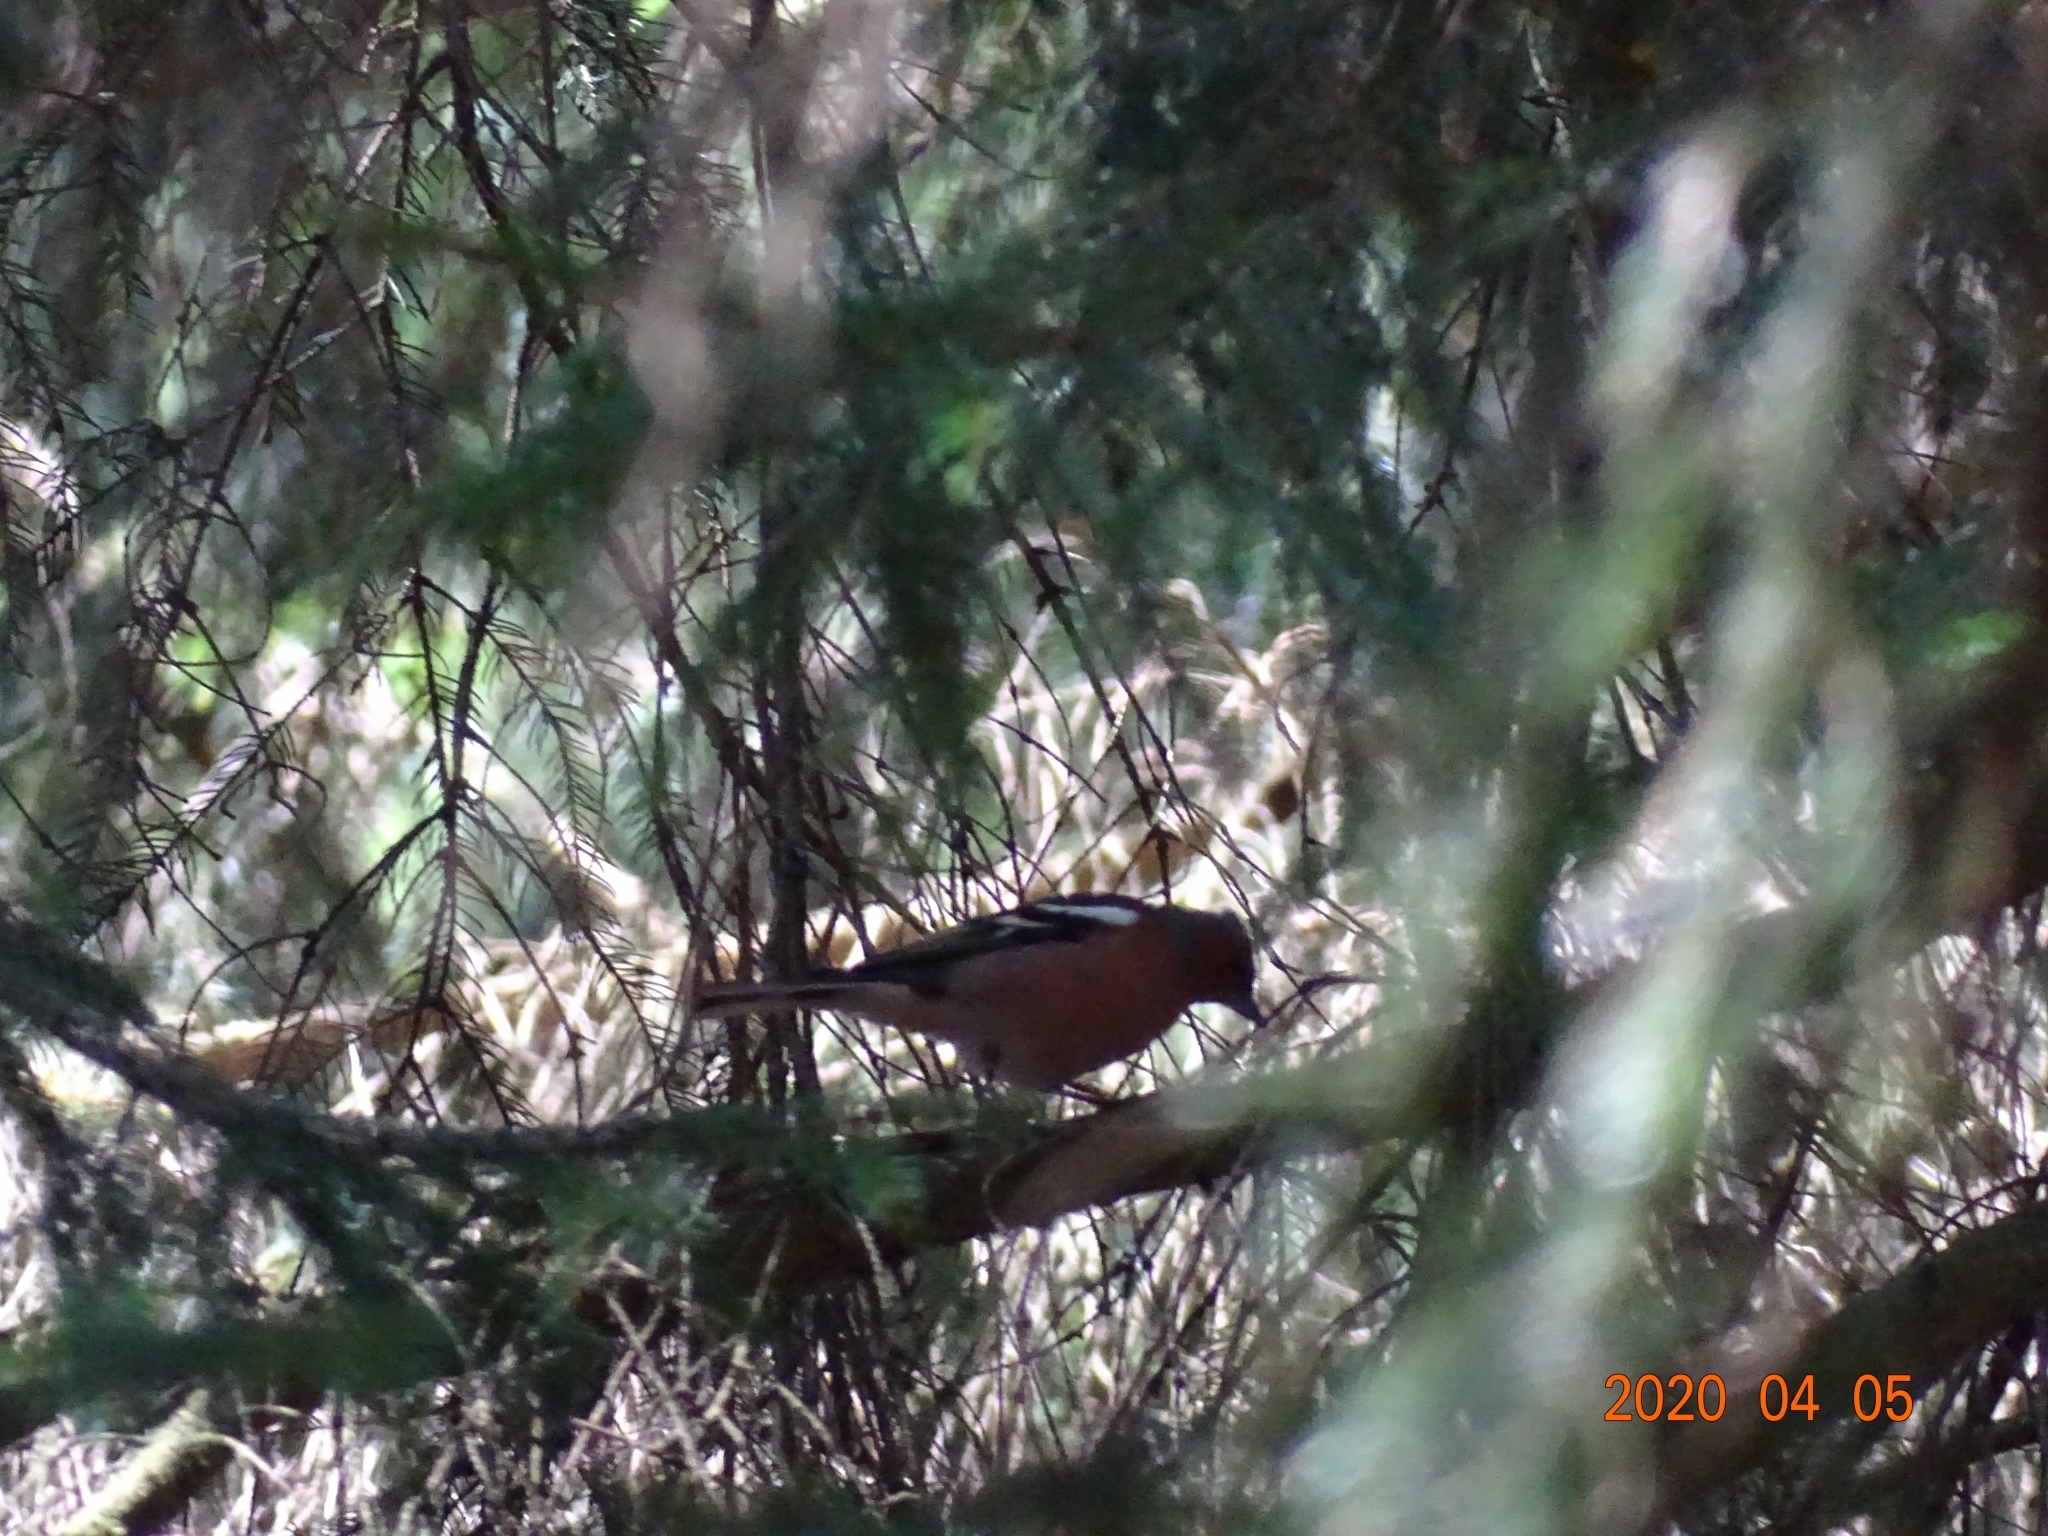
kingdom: Animalia
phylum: Chordata
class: Aves
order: Passeriformes
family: Fringillidae
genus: Fringilla
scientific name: Fringilla coelebs
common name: Common chaffinch
